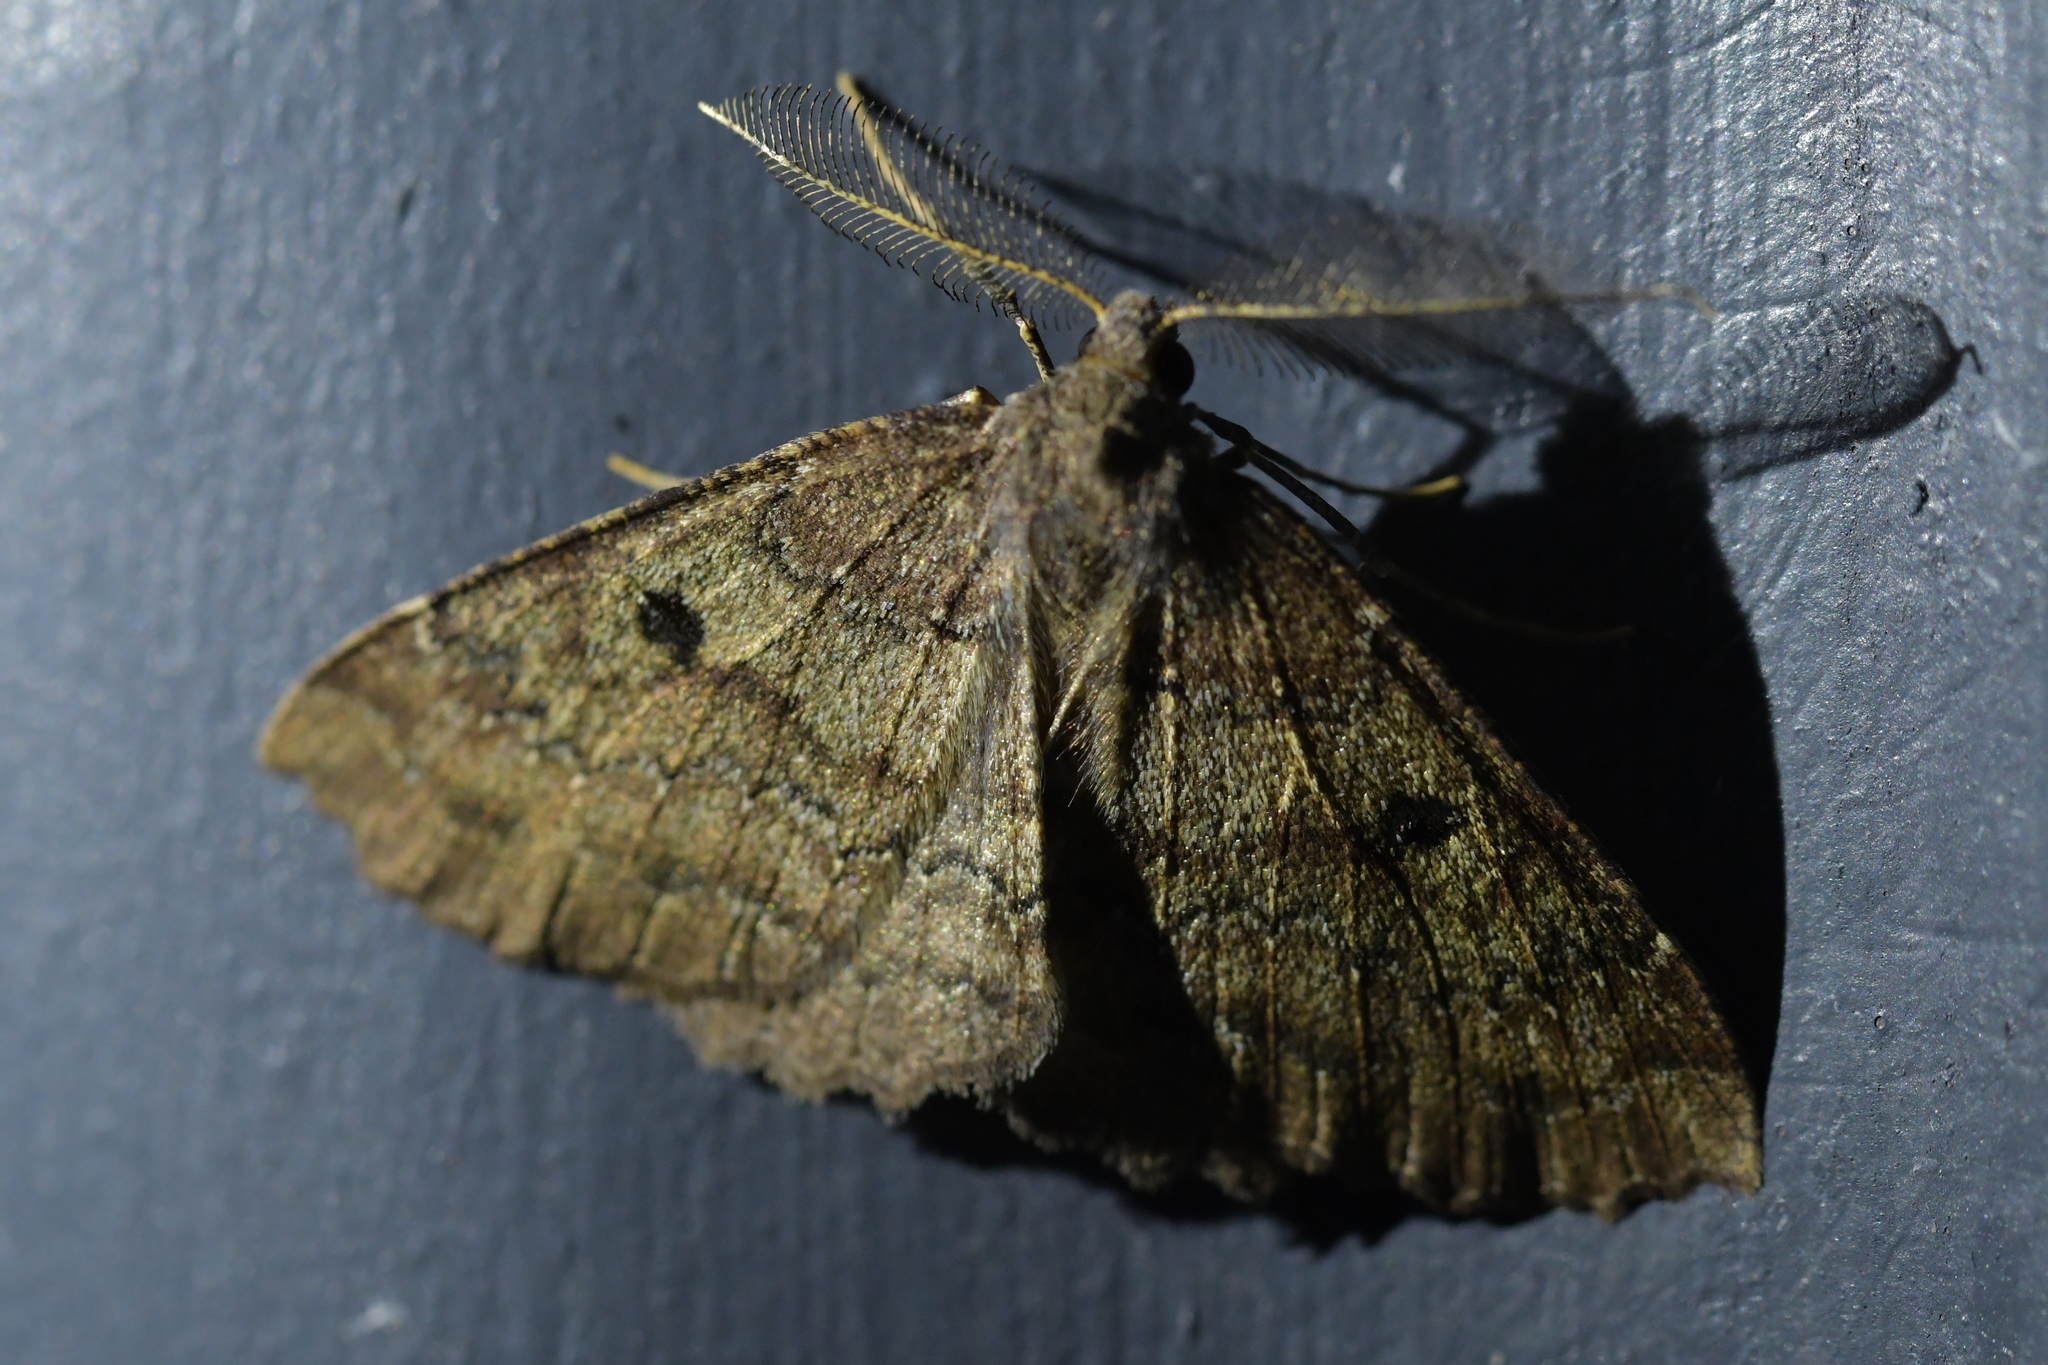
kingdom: Animalia
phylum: Arthropoda
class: Insecta
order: Lepidoptera
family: Geometridae
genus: Cleora
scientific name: Cleora scriptaria
